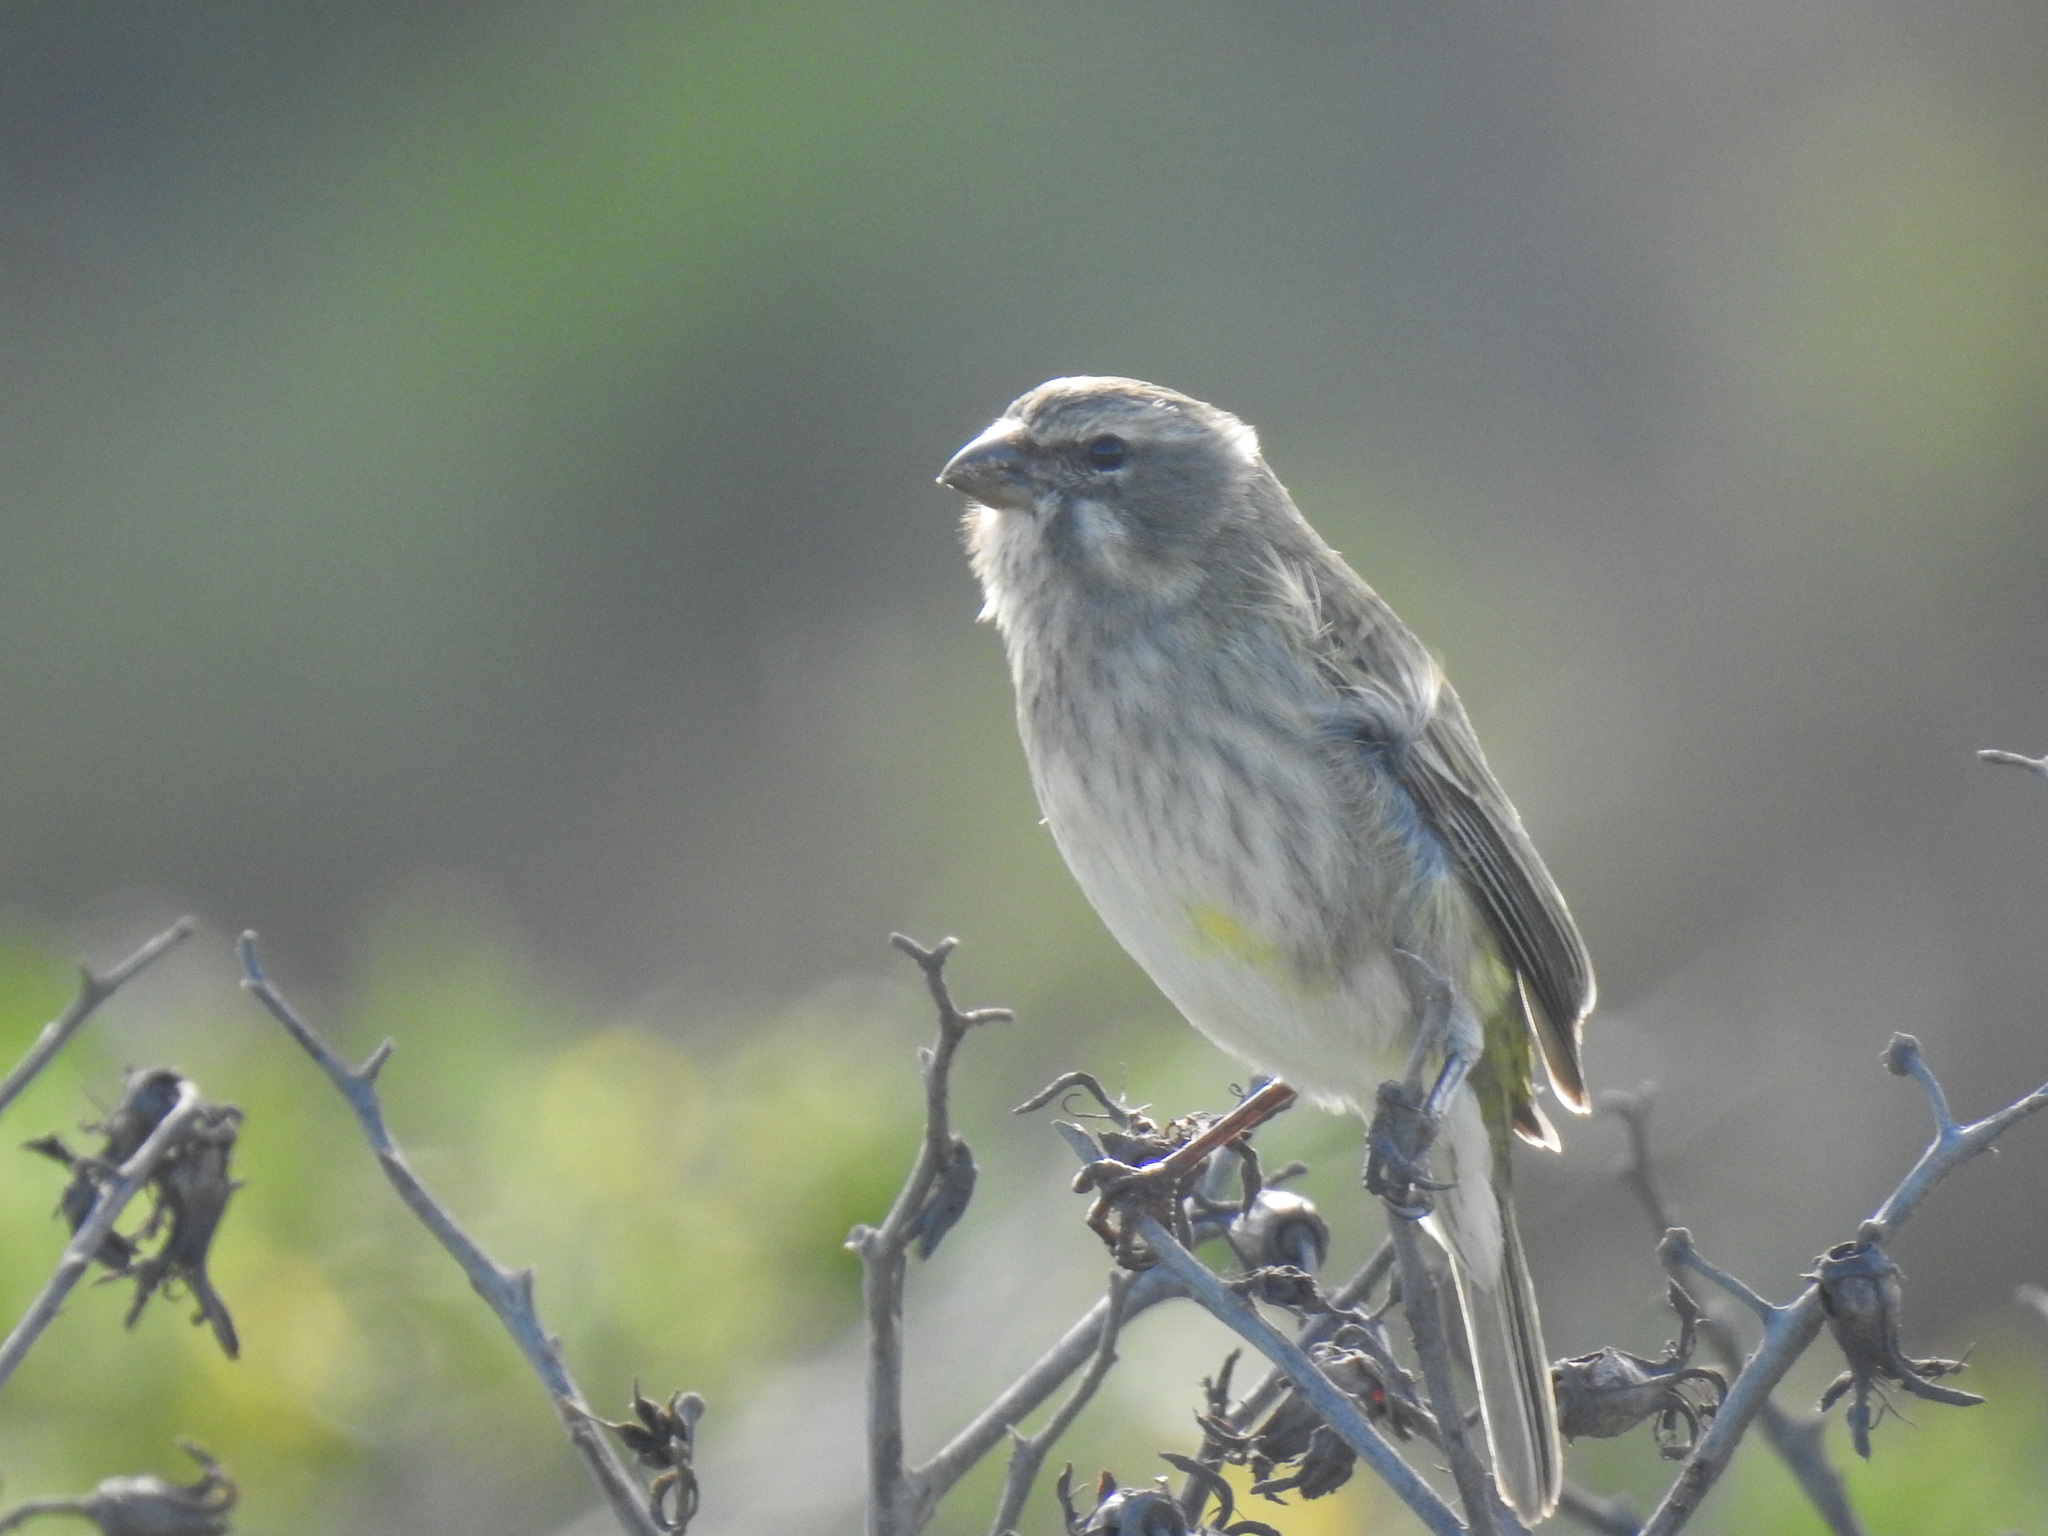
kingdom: Animalia
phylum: Chordata
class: Aves
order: Passeriformes
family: Fringillidae
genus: Crithagra
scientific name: Crithagra flaviventris
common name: Yellow canary
